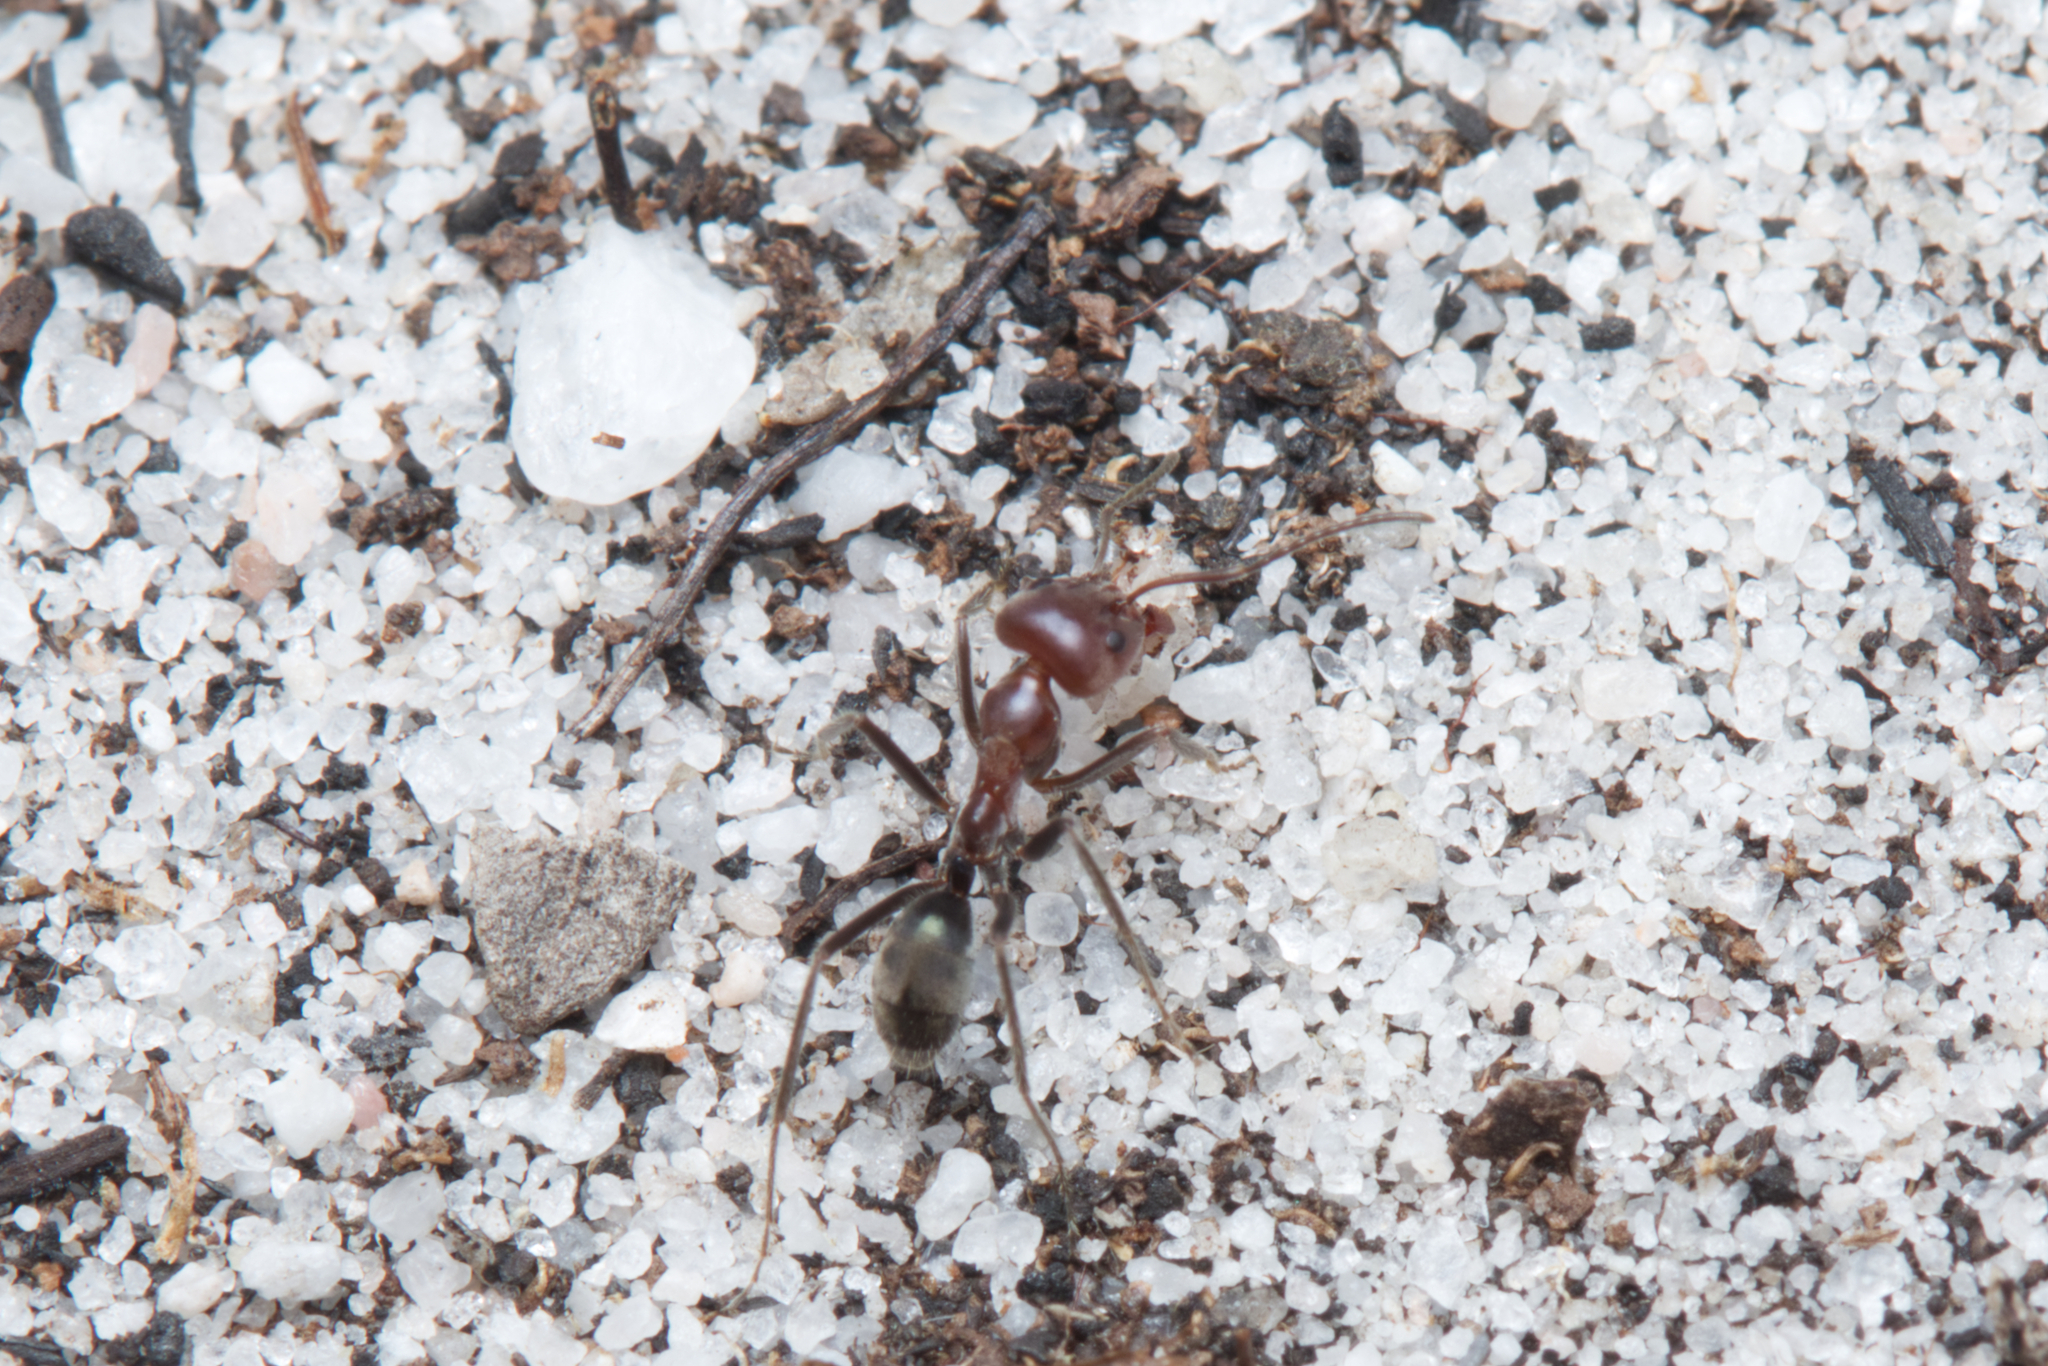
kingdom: Animalia
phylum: Arthropoda
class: Insecta
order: Hymenoptera
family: Formicidae
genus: Iridomyrmex
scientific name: Iridomyrmex discors
